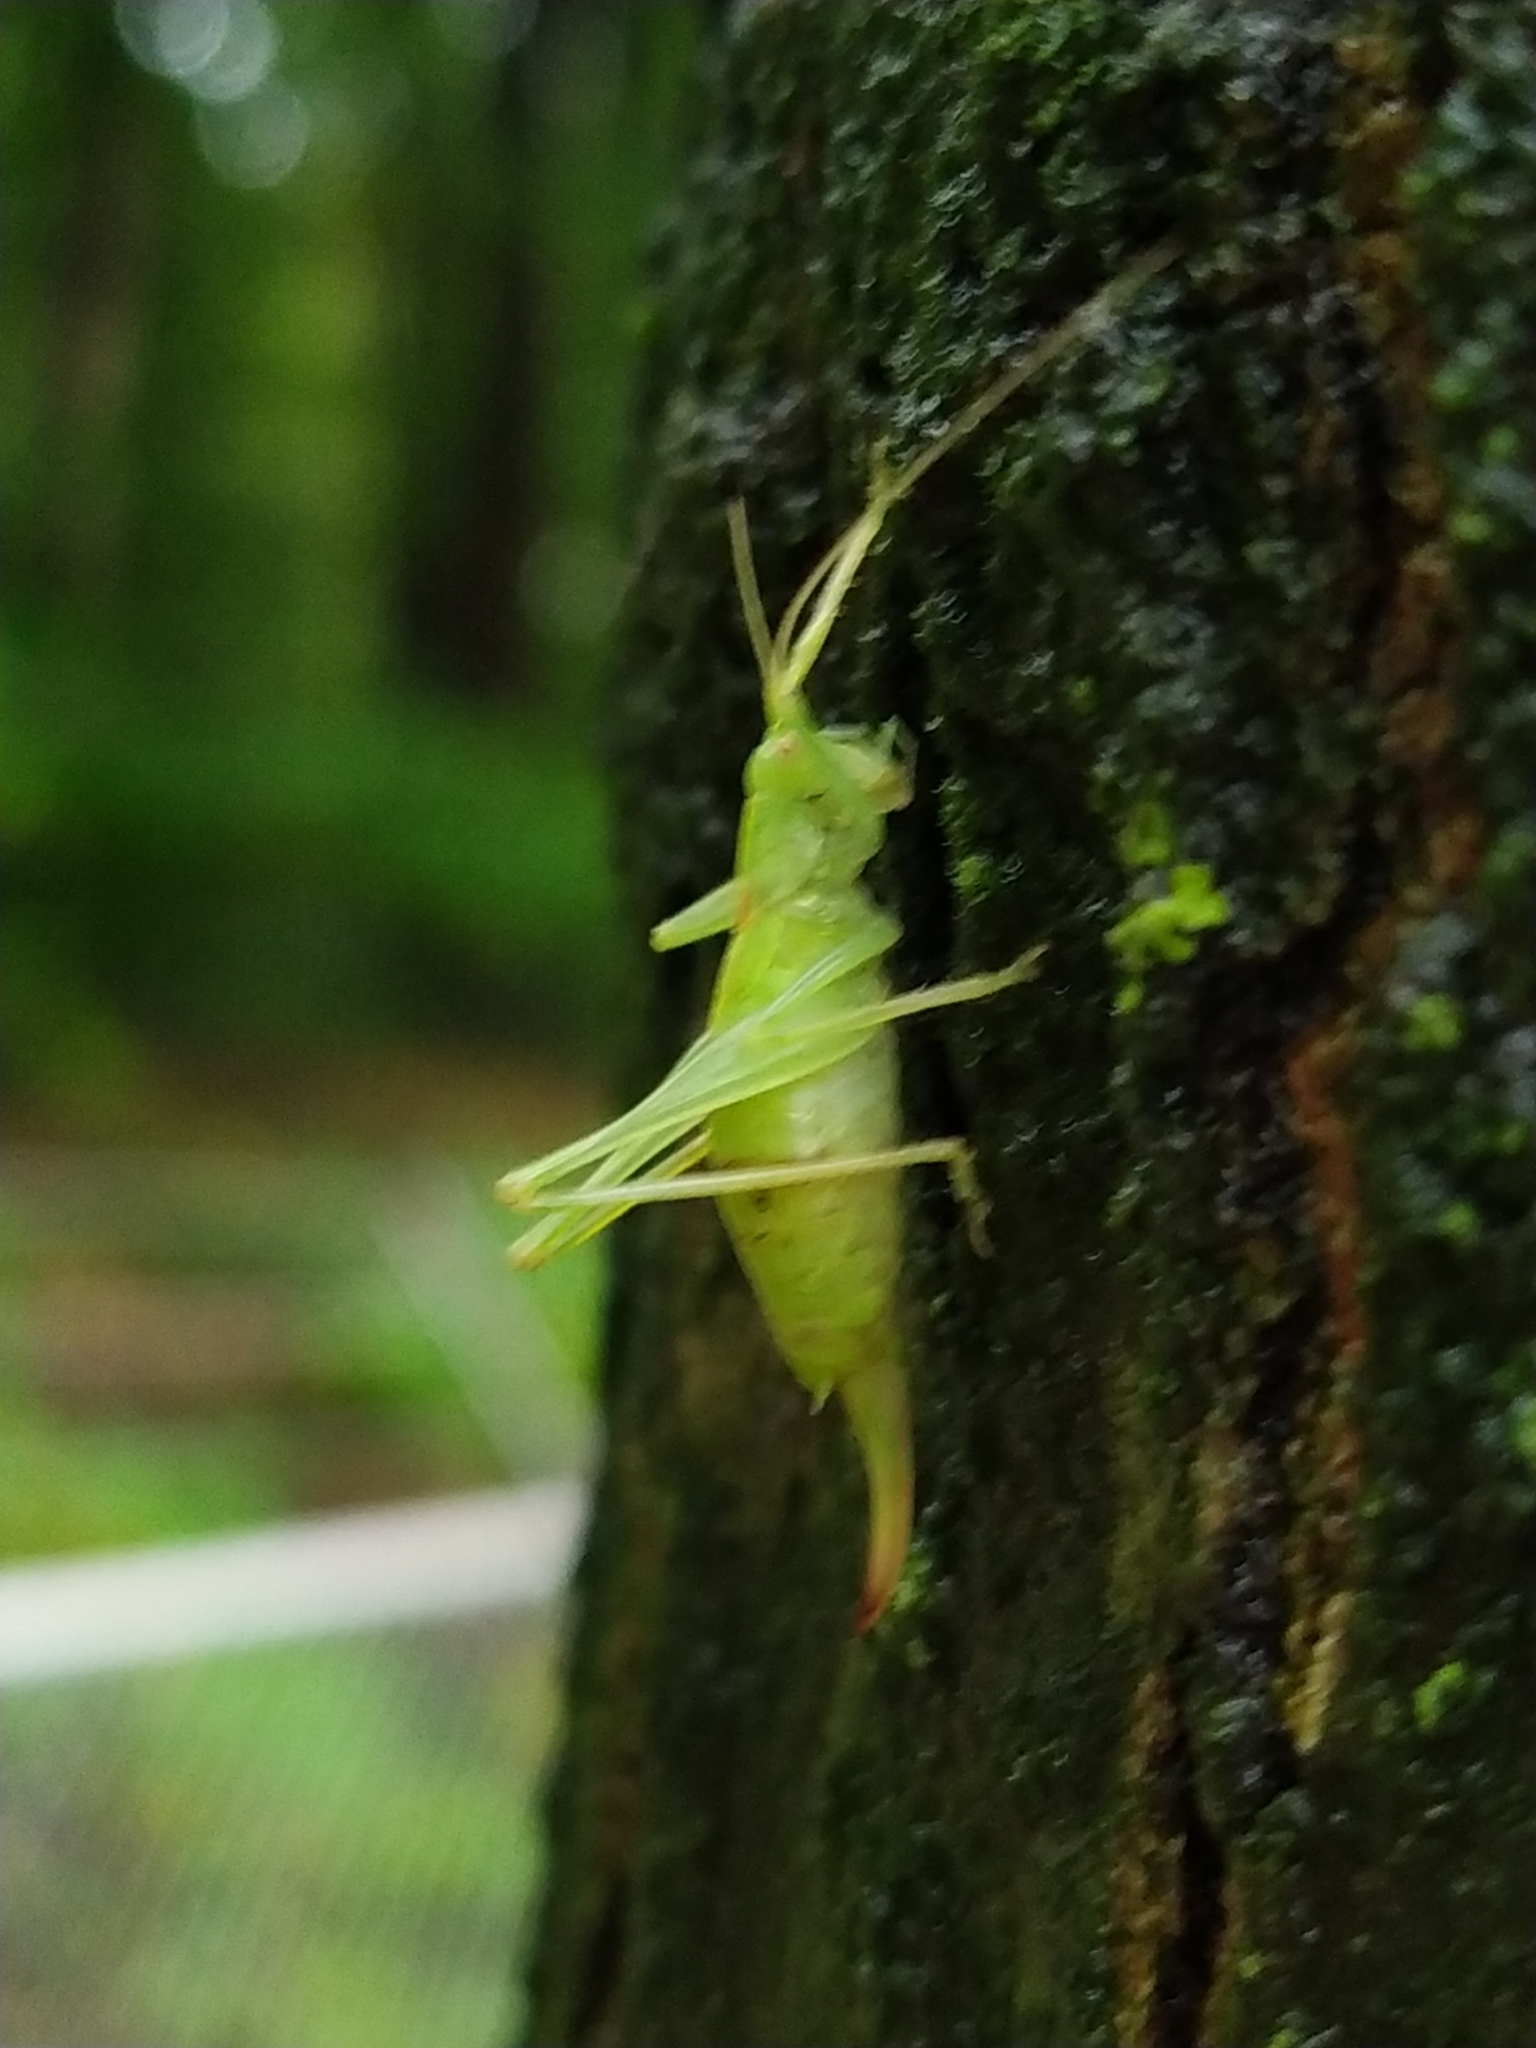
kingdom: Animalia
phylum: Arthropoda
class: Insecta
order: Orthoptera
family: Tettigoniidae
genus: Meconema
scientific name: Meconema meridionale
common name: Southern oak bush-cricket
